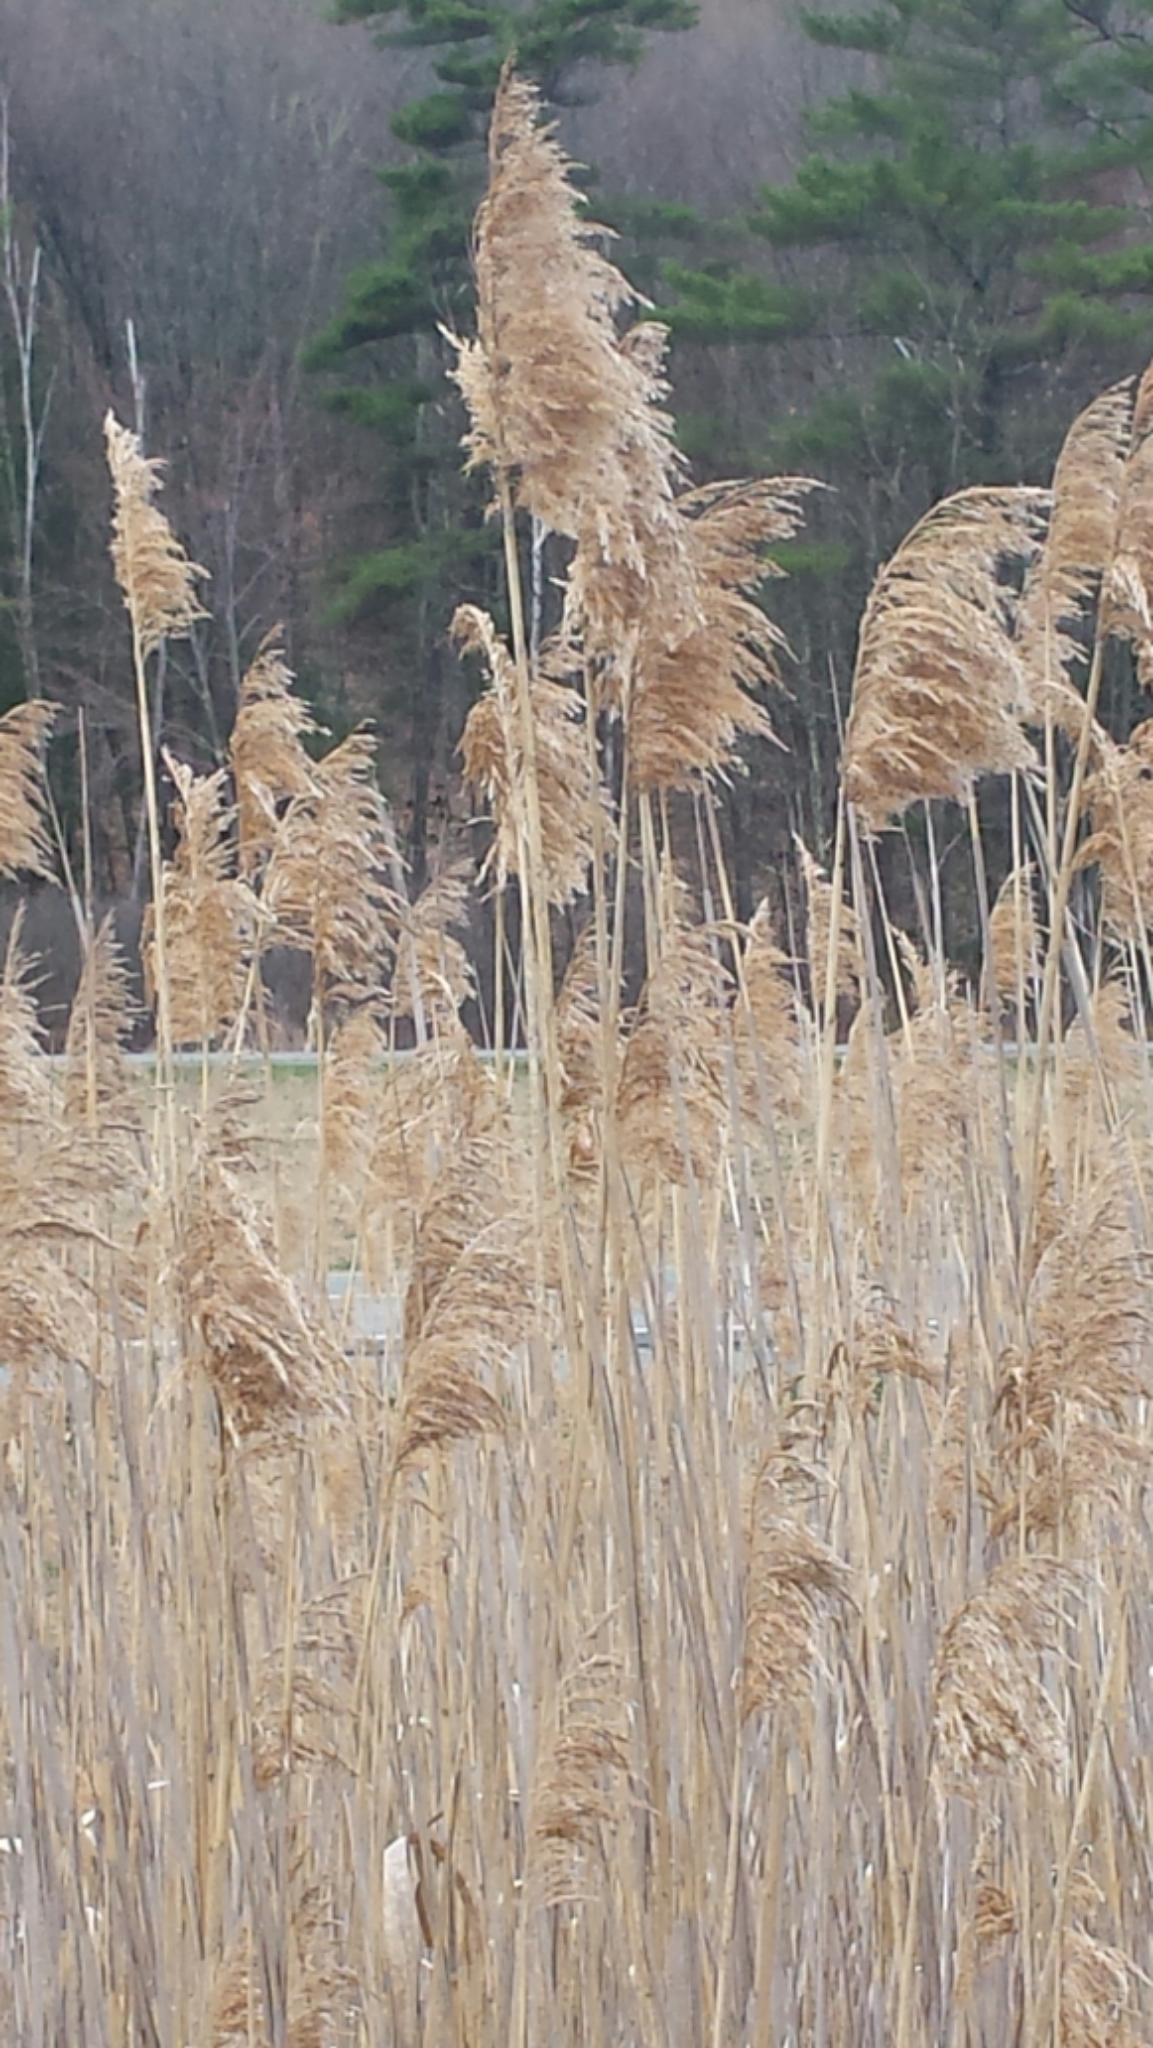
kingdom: Plantae
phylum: Tracheophyta
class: Liliopsida
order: Poales
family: Poaceae
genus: Phragmites
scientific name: Phragmites australis
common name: Common reed
